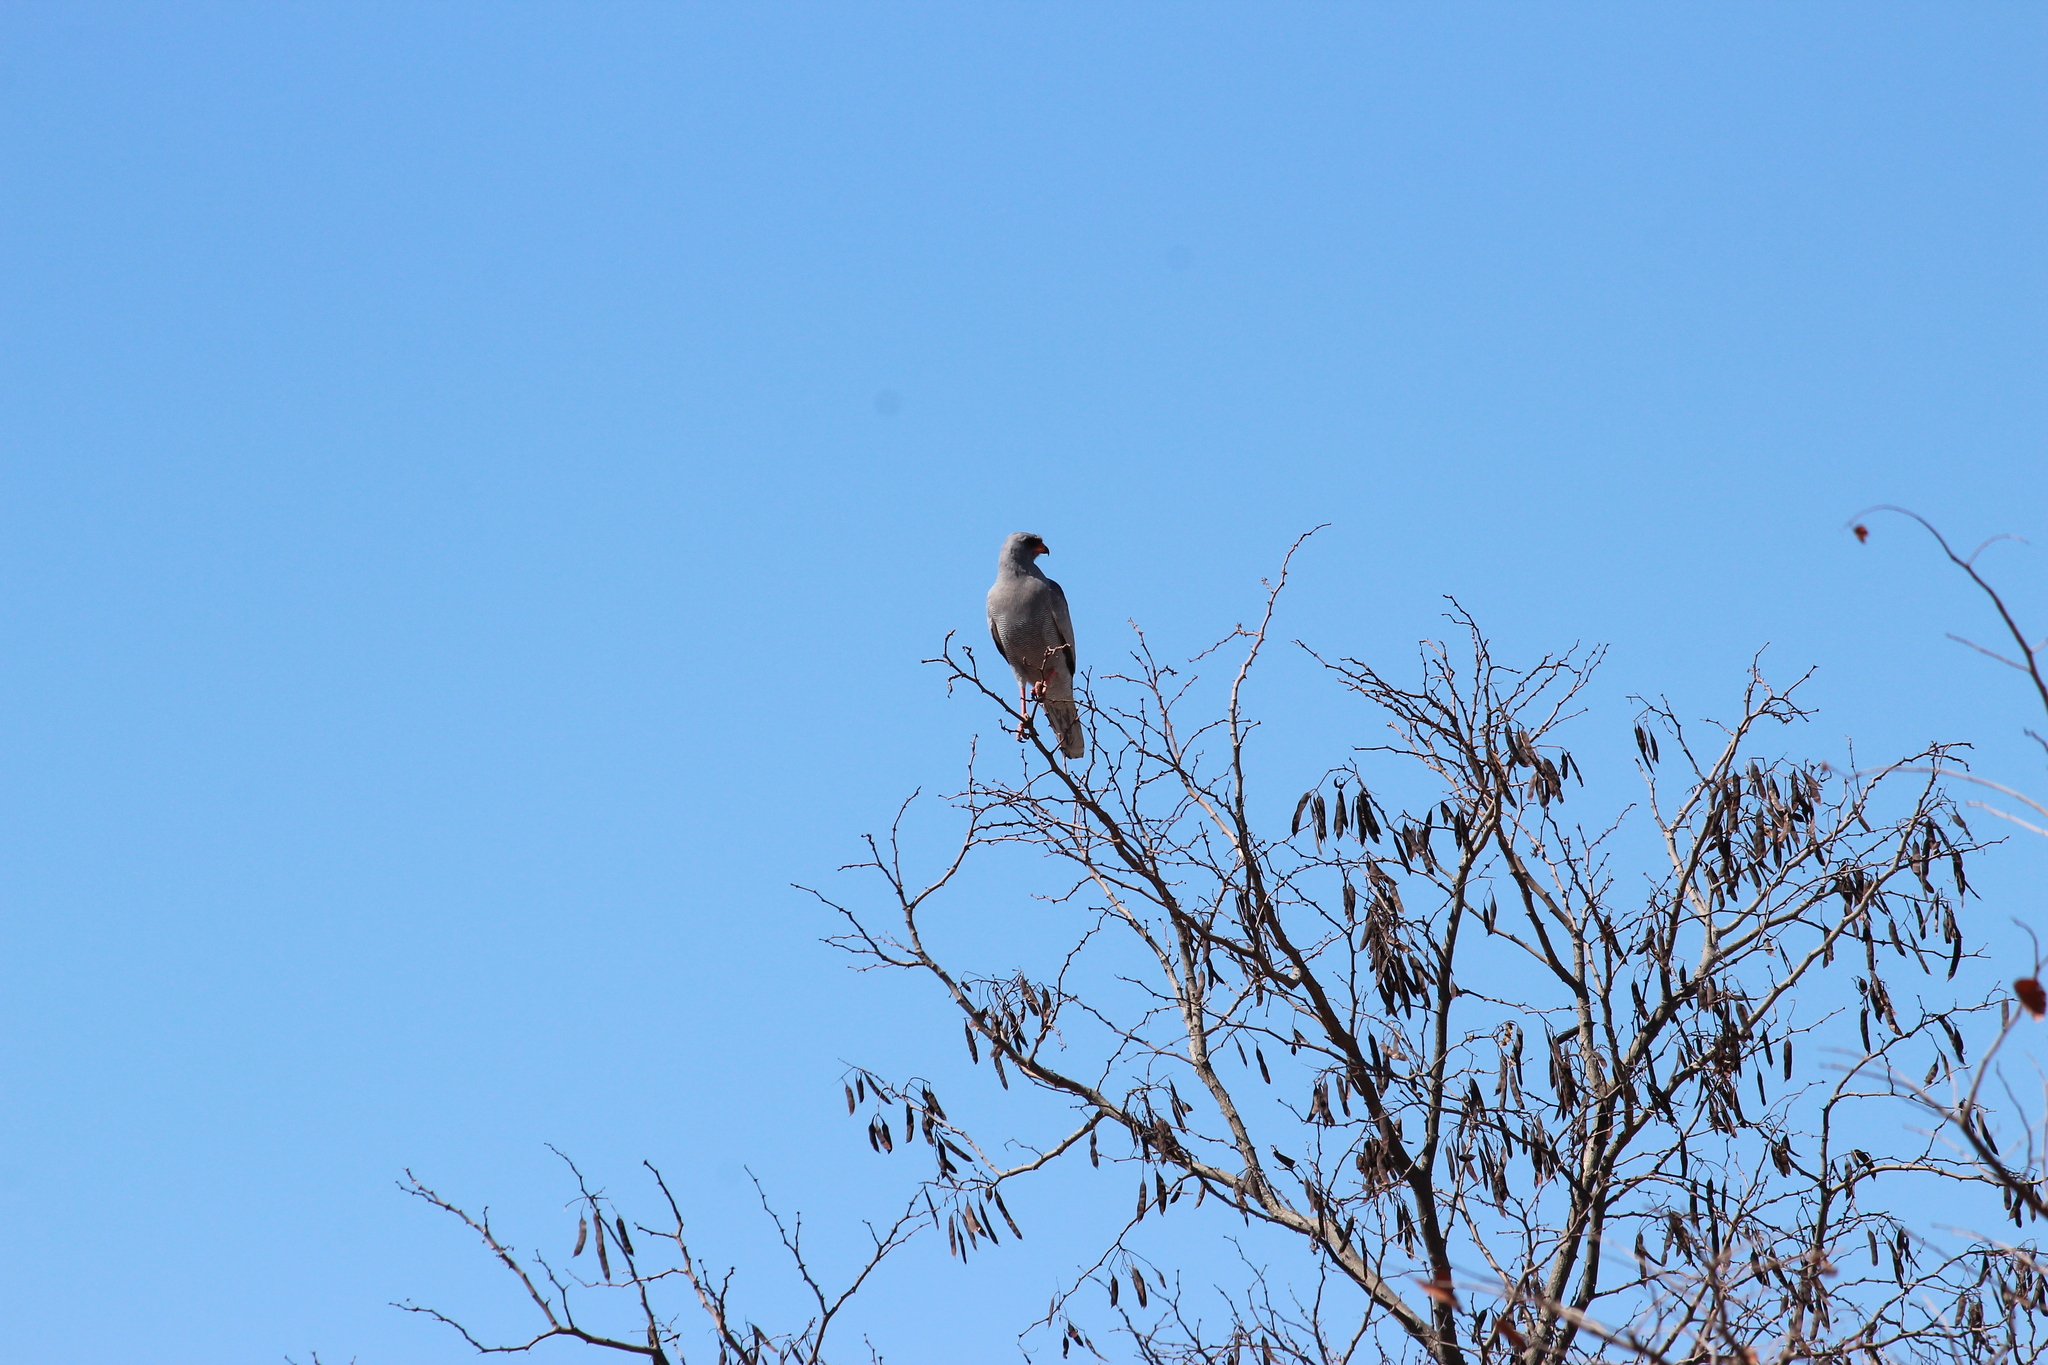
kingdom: Animalia
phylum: Chordata
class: Aves
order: Accipitriformes
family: Accipitridae
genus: Melierax
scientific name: Melierax metabates
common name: Dark chanting-goshawk
